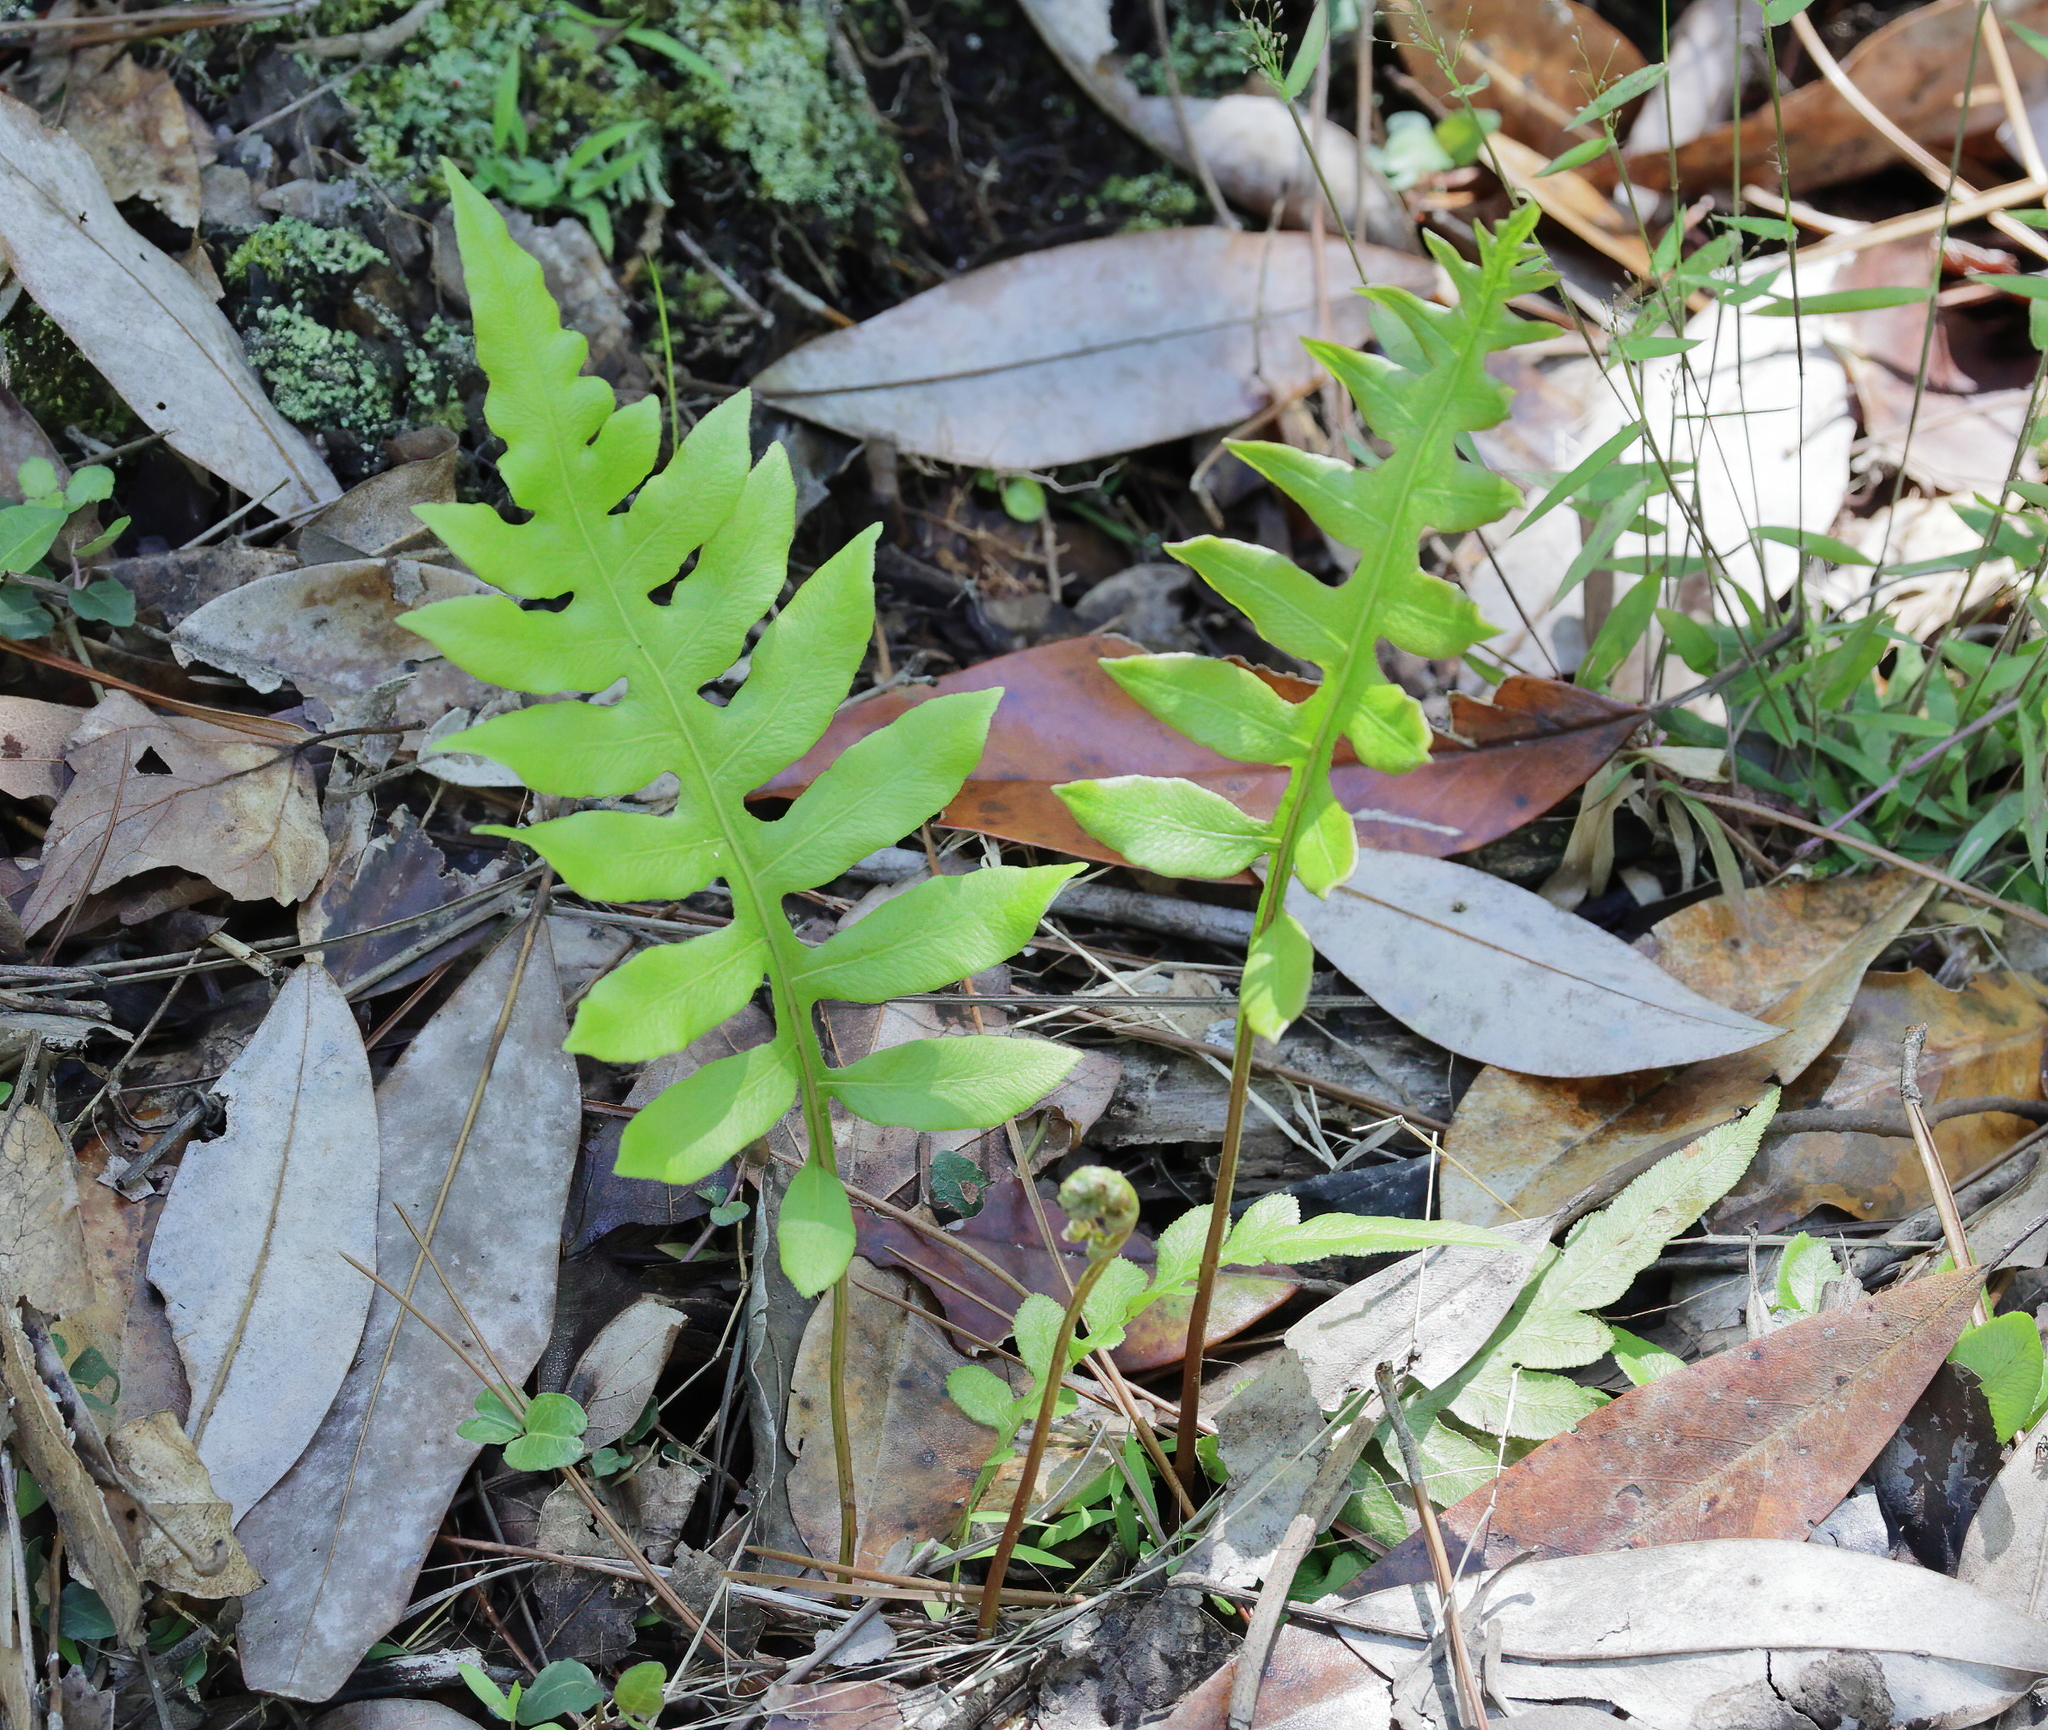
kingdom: Plantae
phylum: Tracheophyta
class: Polypodiopsida
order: Polypodiales
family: Blechnaceae
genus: Lorinseria
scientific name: Lorinseria areolata
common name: Dwarf chain fern
